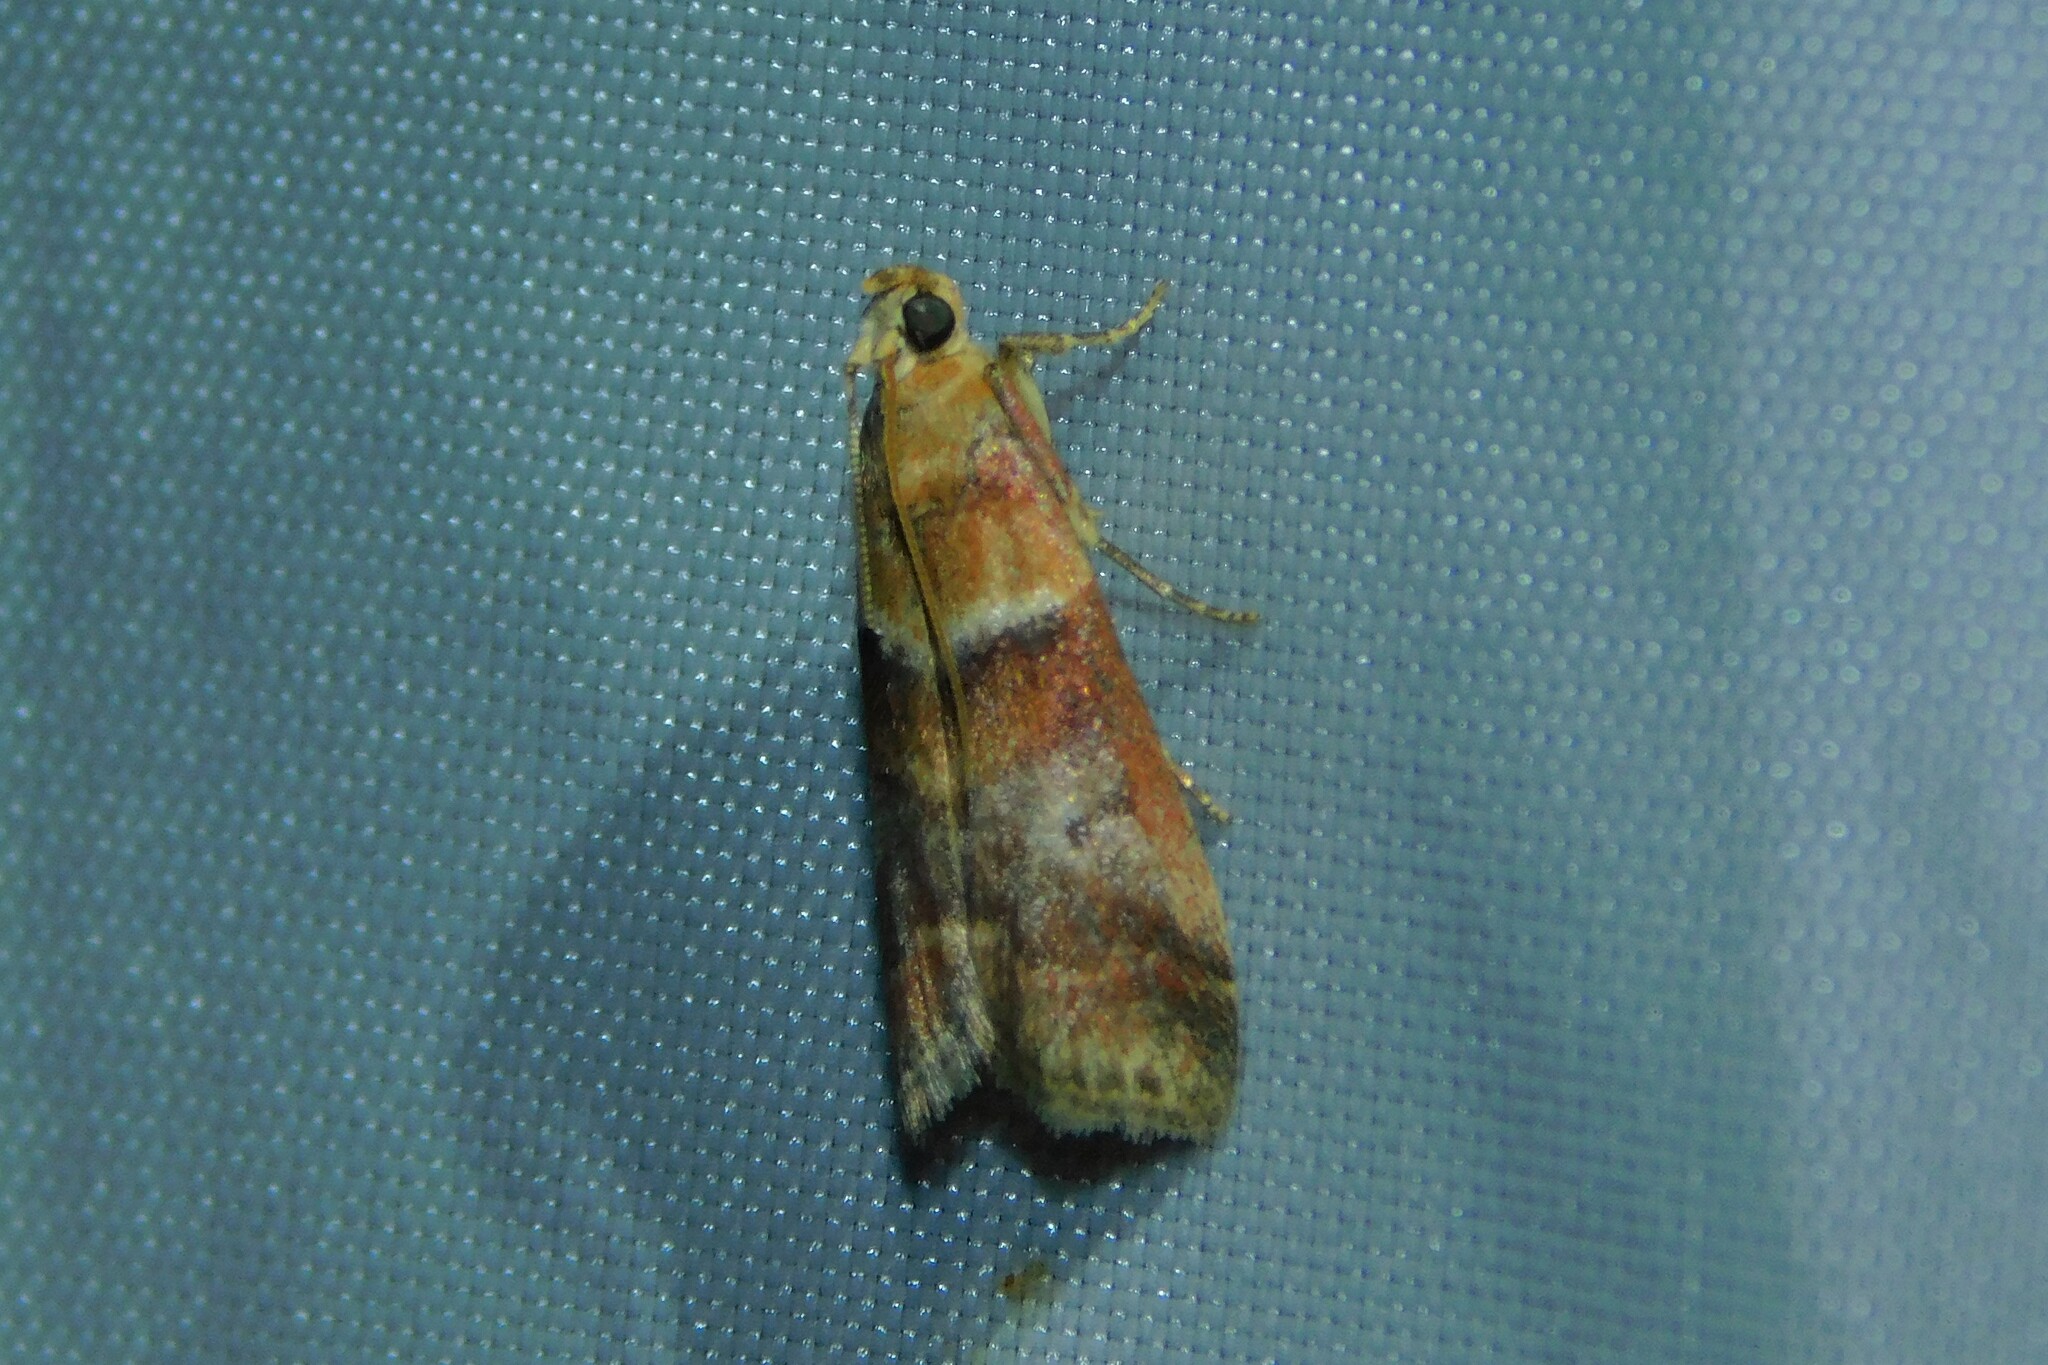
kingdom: Animalia
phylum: Arthropoda
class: Insecta
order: Lepidoptera
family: Pyralidae
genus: Acrobasis
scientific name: Acrobasis repandana
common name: Warted knot-horn
